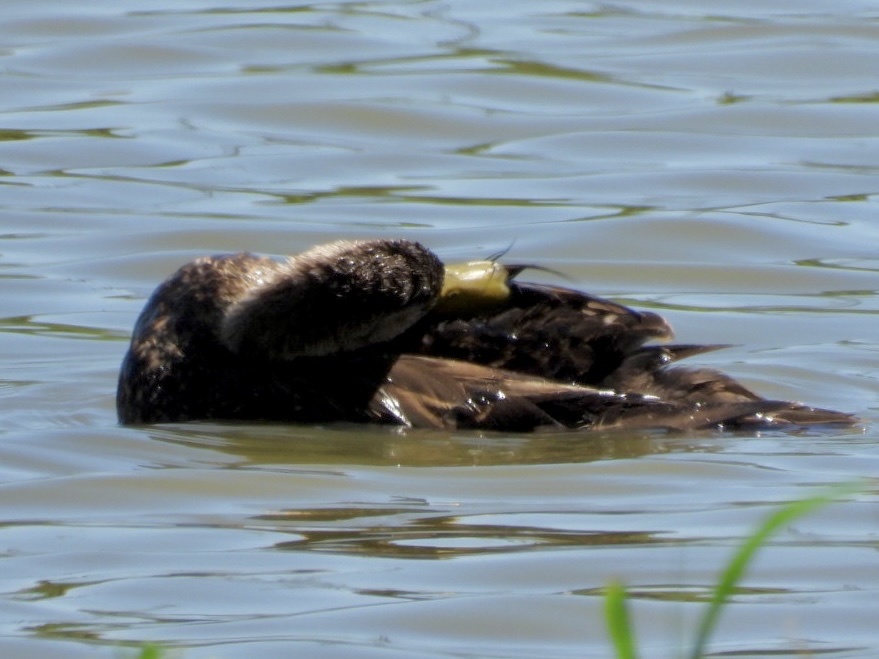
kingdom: Animalia
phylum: Chordata
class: Aves
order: Anseriformes
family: Anatidae
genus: Anas
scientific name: Anas fulvigula
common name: Mottled duck
